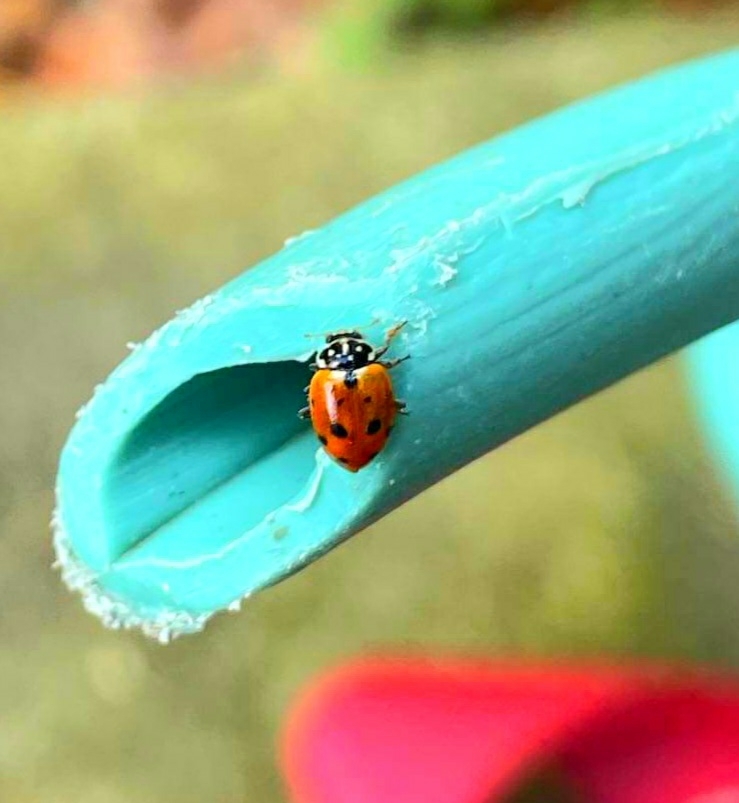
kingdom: Animalia
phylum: Arthropoda
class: Insecta
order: Coleoptera
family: Coccinellidae
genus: Hippodamia
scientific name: Hippodamia variegata
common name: Ladybird beetle
